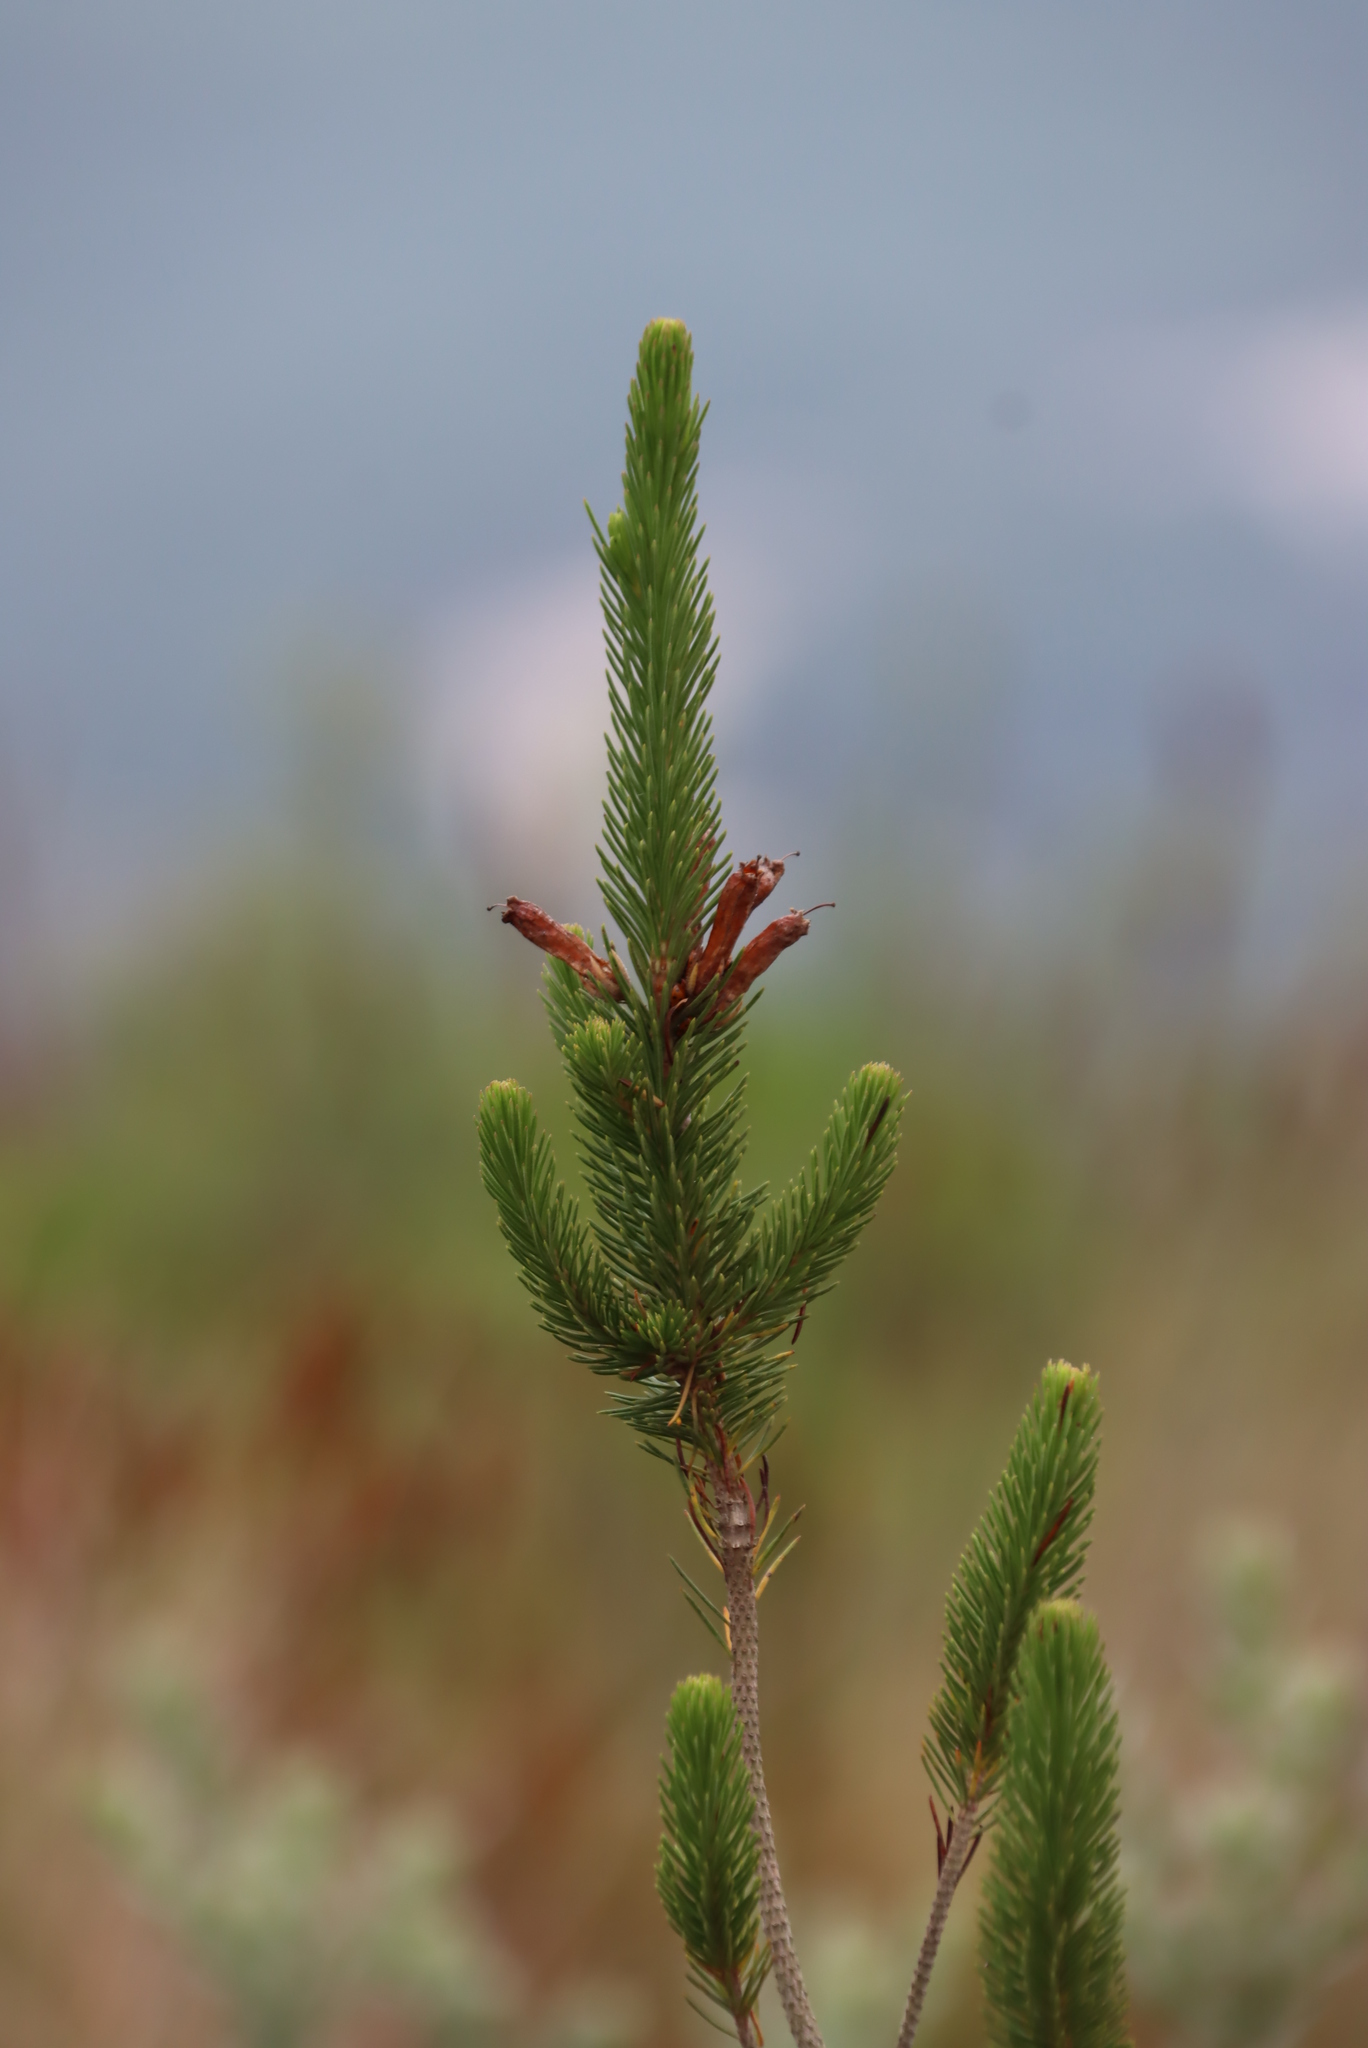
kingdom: Plantae
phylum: Tracheophyta
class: Magnoliopsida
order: Ericales
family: Ericaceae
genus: Erica
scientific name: Erica viscaria
